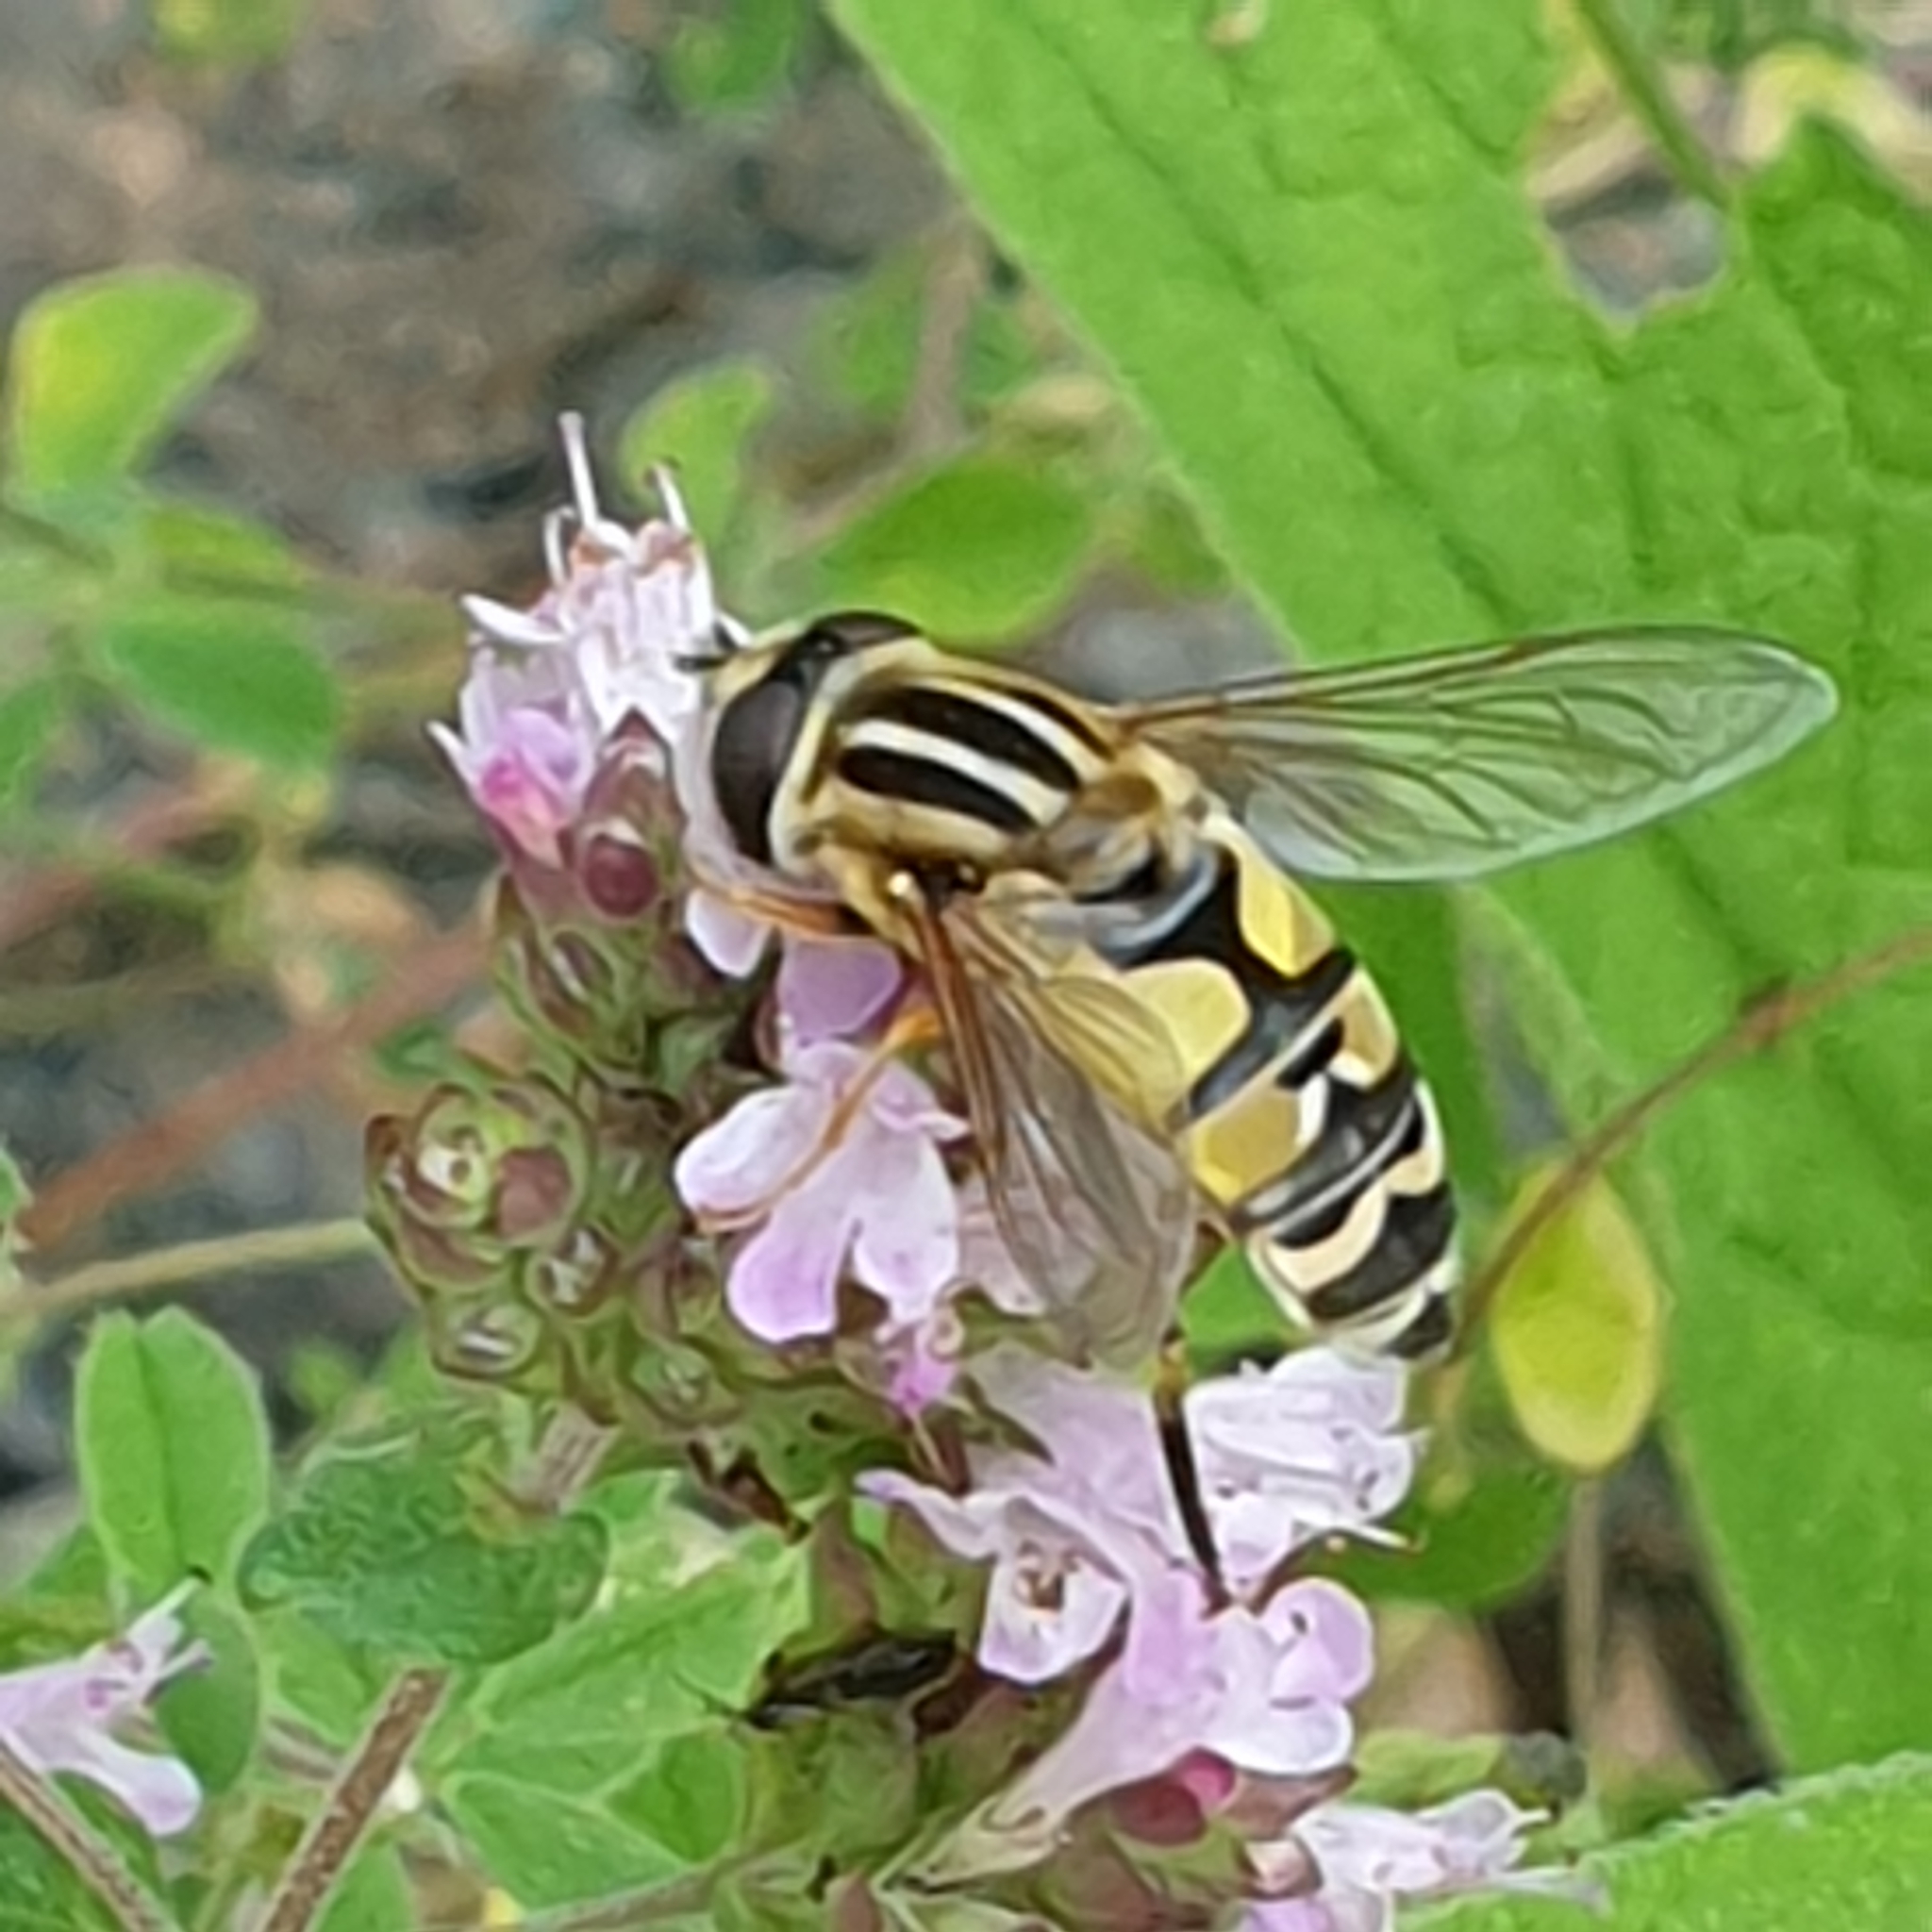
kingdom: Animalia
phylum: Arthropoda
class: Insecta
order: Diptera
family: Syrphidae
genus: Helophilus
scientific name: Helophilus trivittatus
